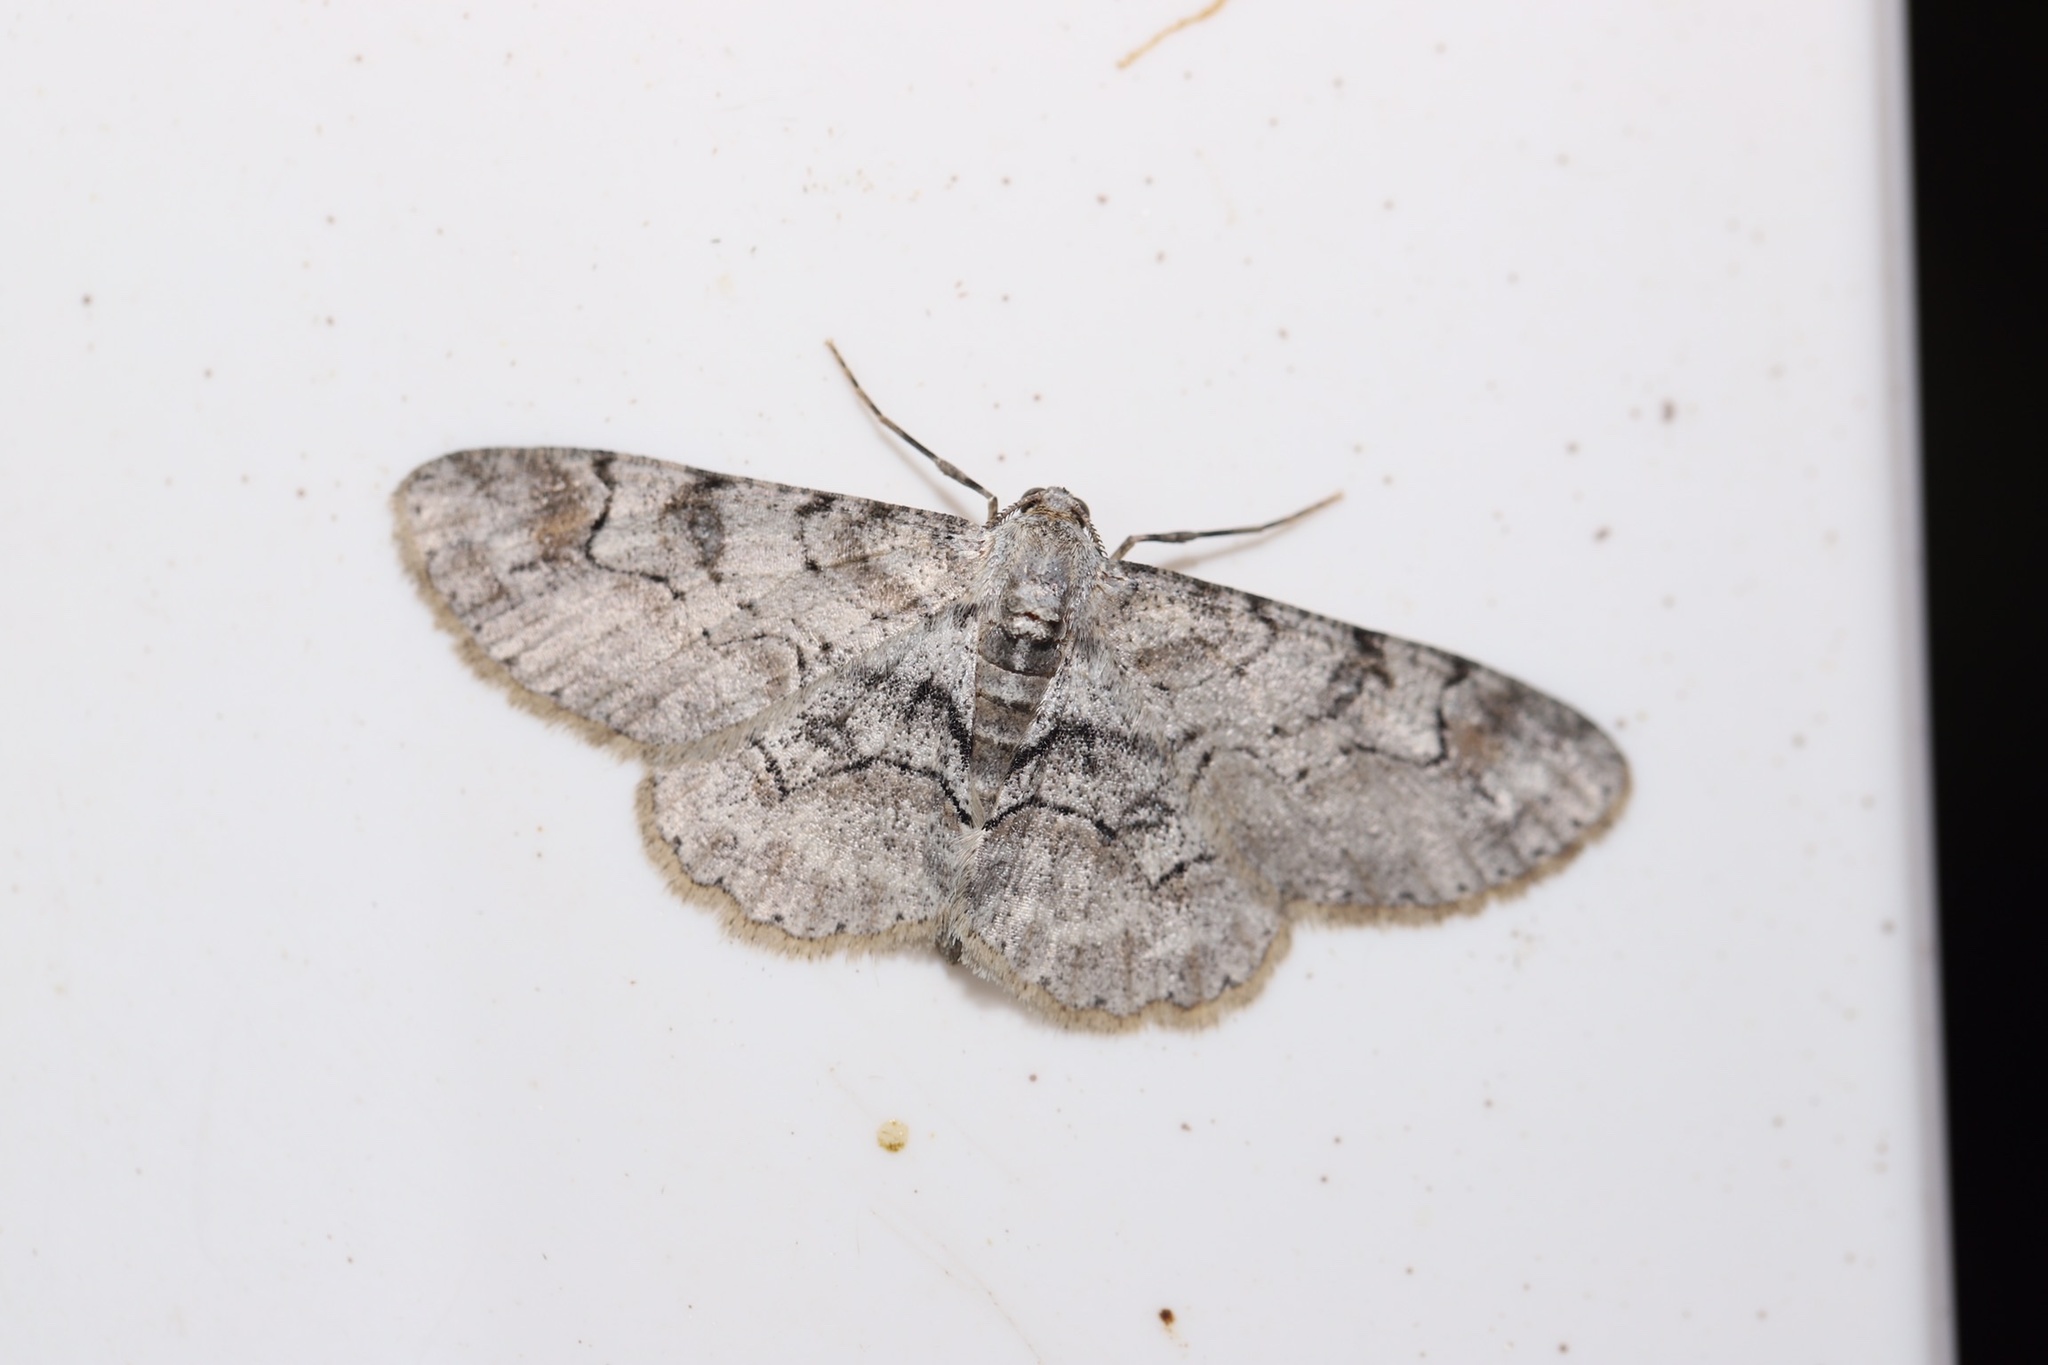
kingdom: Animalia
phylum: Arthropoda
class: Insecta
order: Lepidoptera
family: Geometridae
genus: Iridopsis
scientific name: Iridopsis larvaria
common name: Bent-line gray
